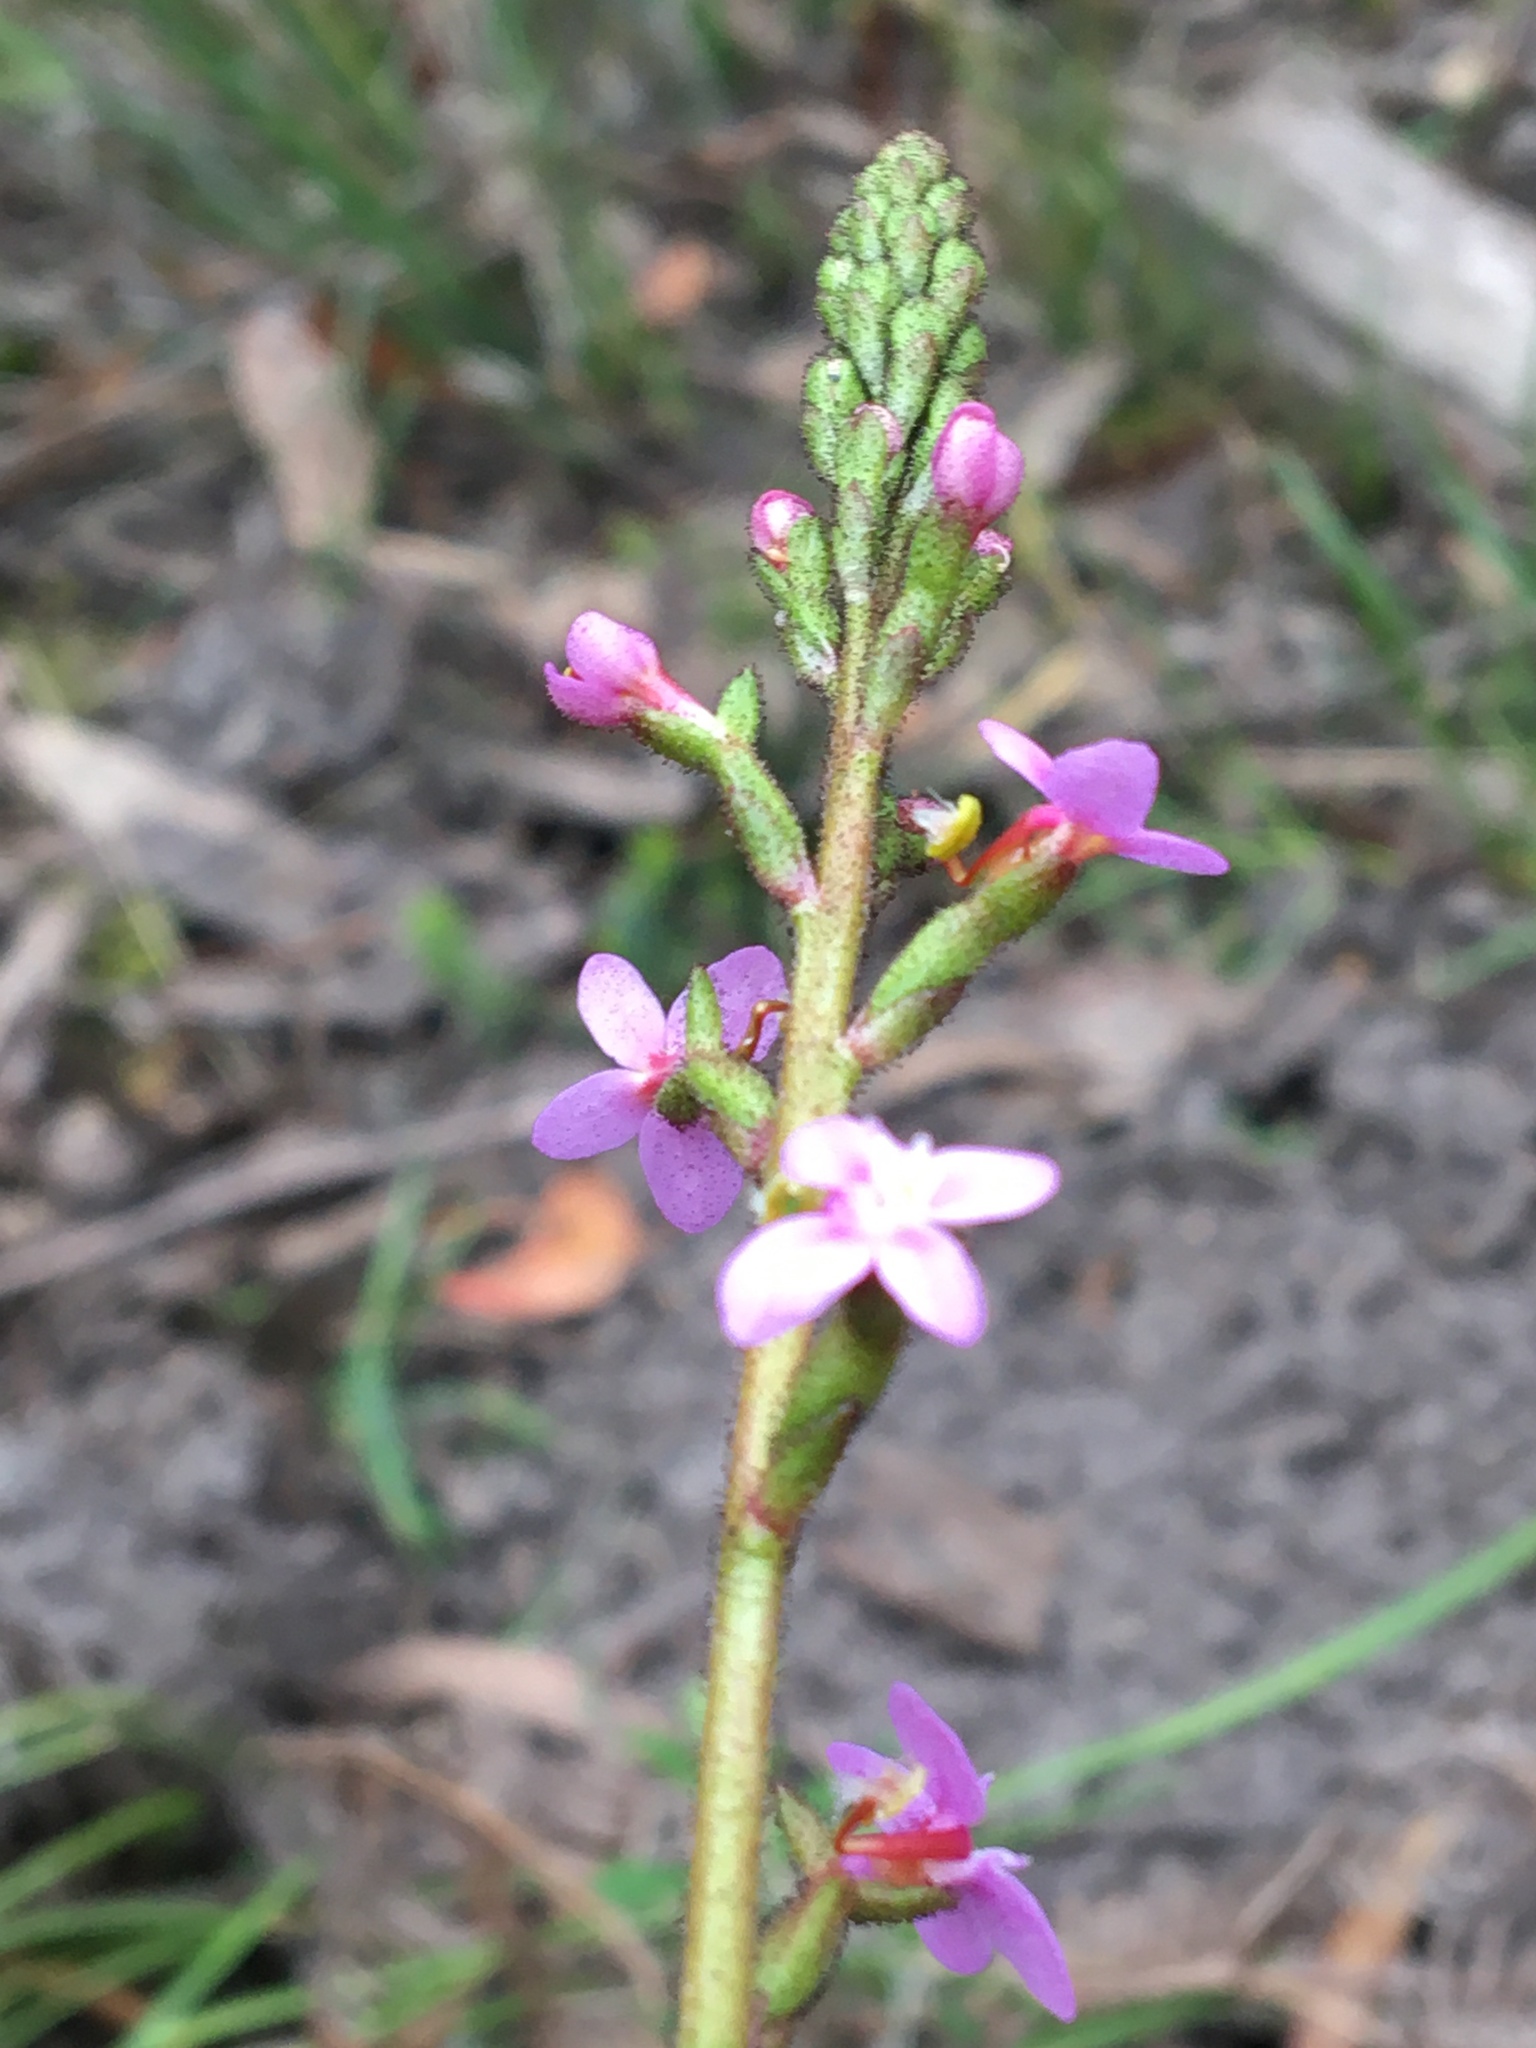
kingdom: Plantae
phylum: Tracheophyta
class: Magnoliopsida
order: Asterales
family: Stylidiaceae
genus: Stylidium
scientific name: Stylidium graminifolium
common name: Grass triggerplant
